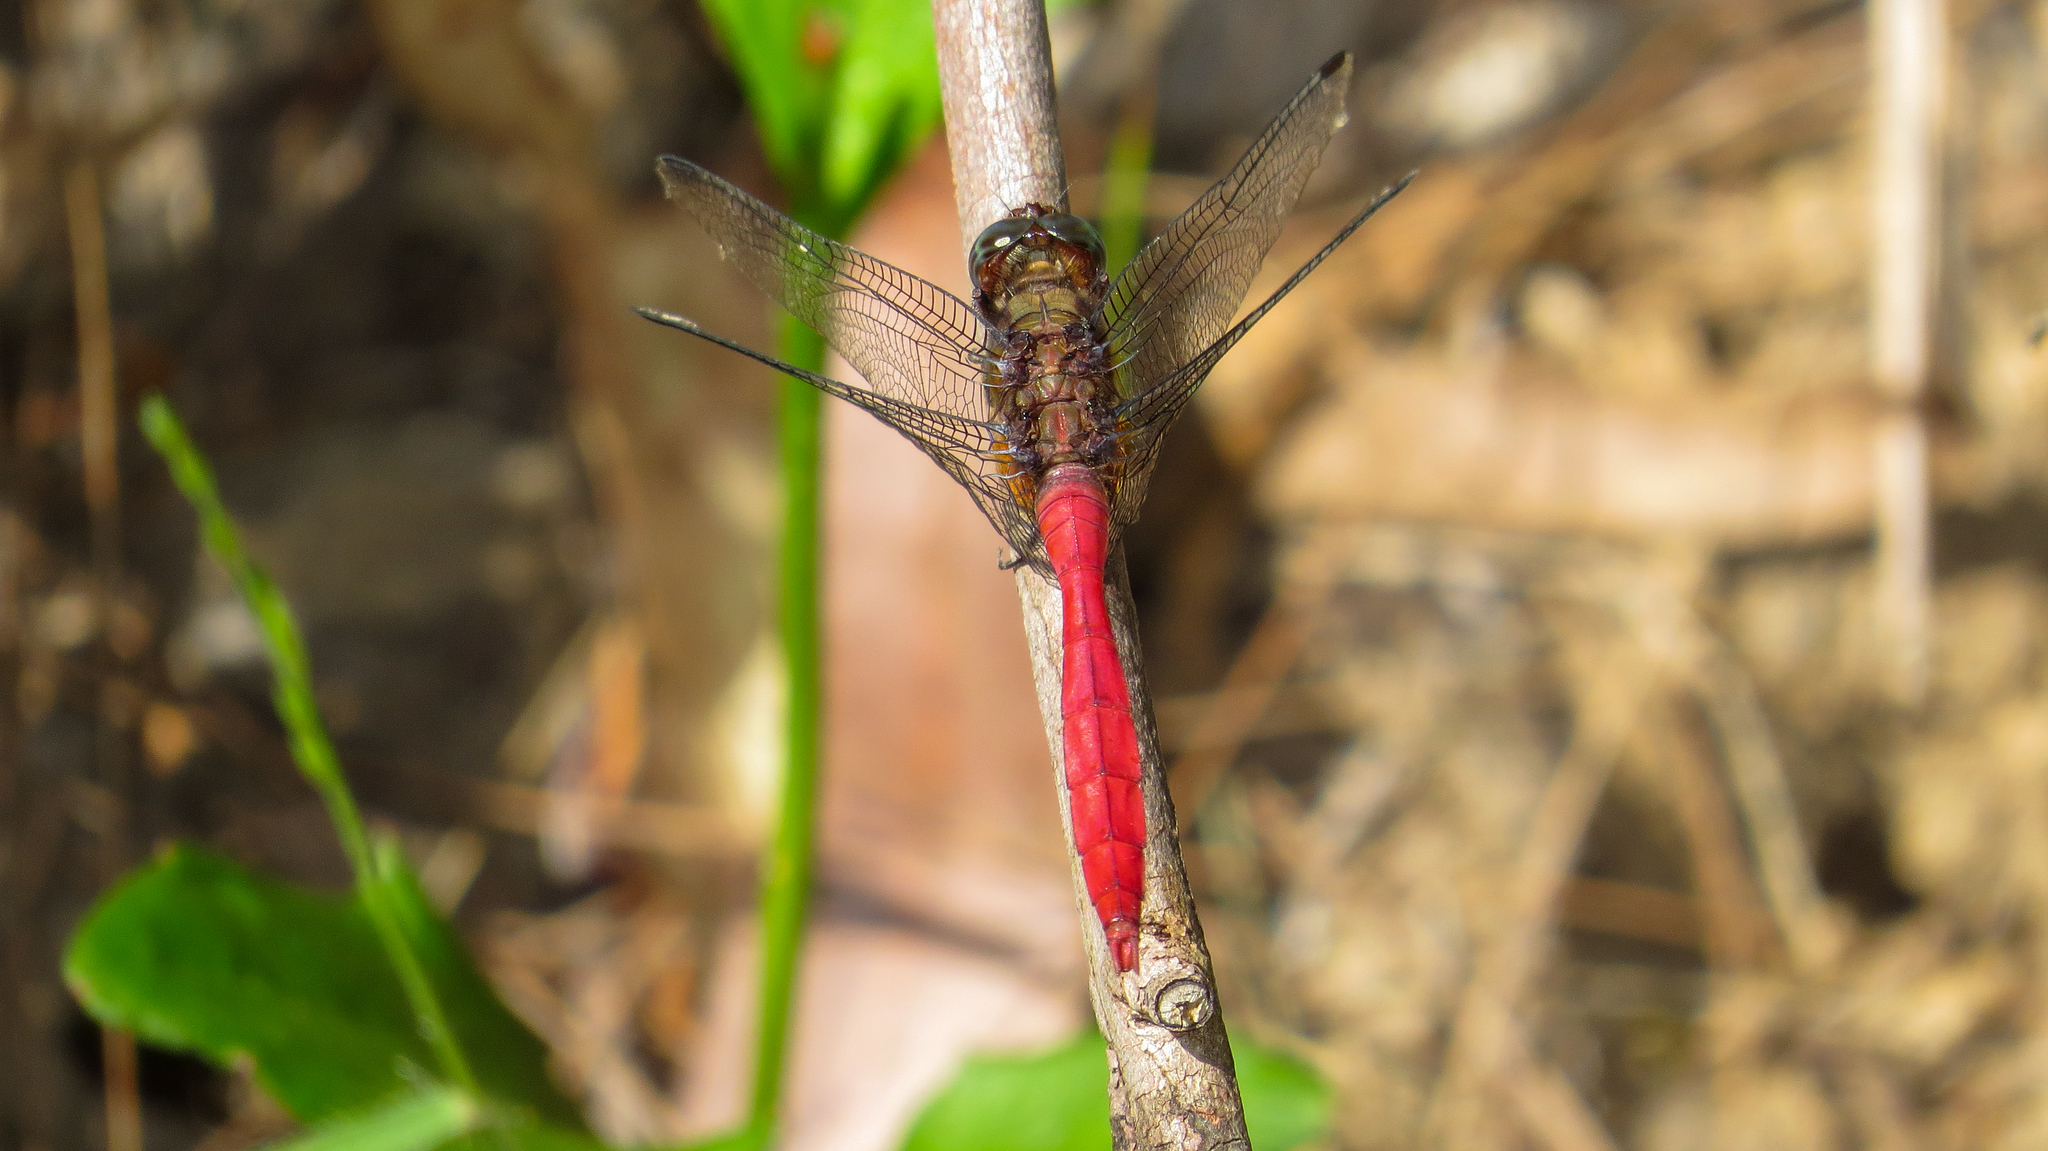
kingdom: Animalia
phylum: Arthropoda
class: Insecta
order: Odonata
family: Libellulidae
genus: Orthetrum
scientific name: Orthetrum villosovittatum
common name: Firery skimmer
